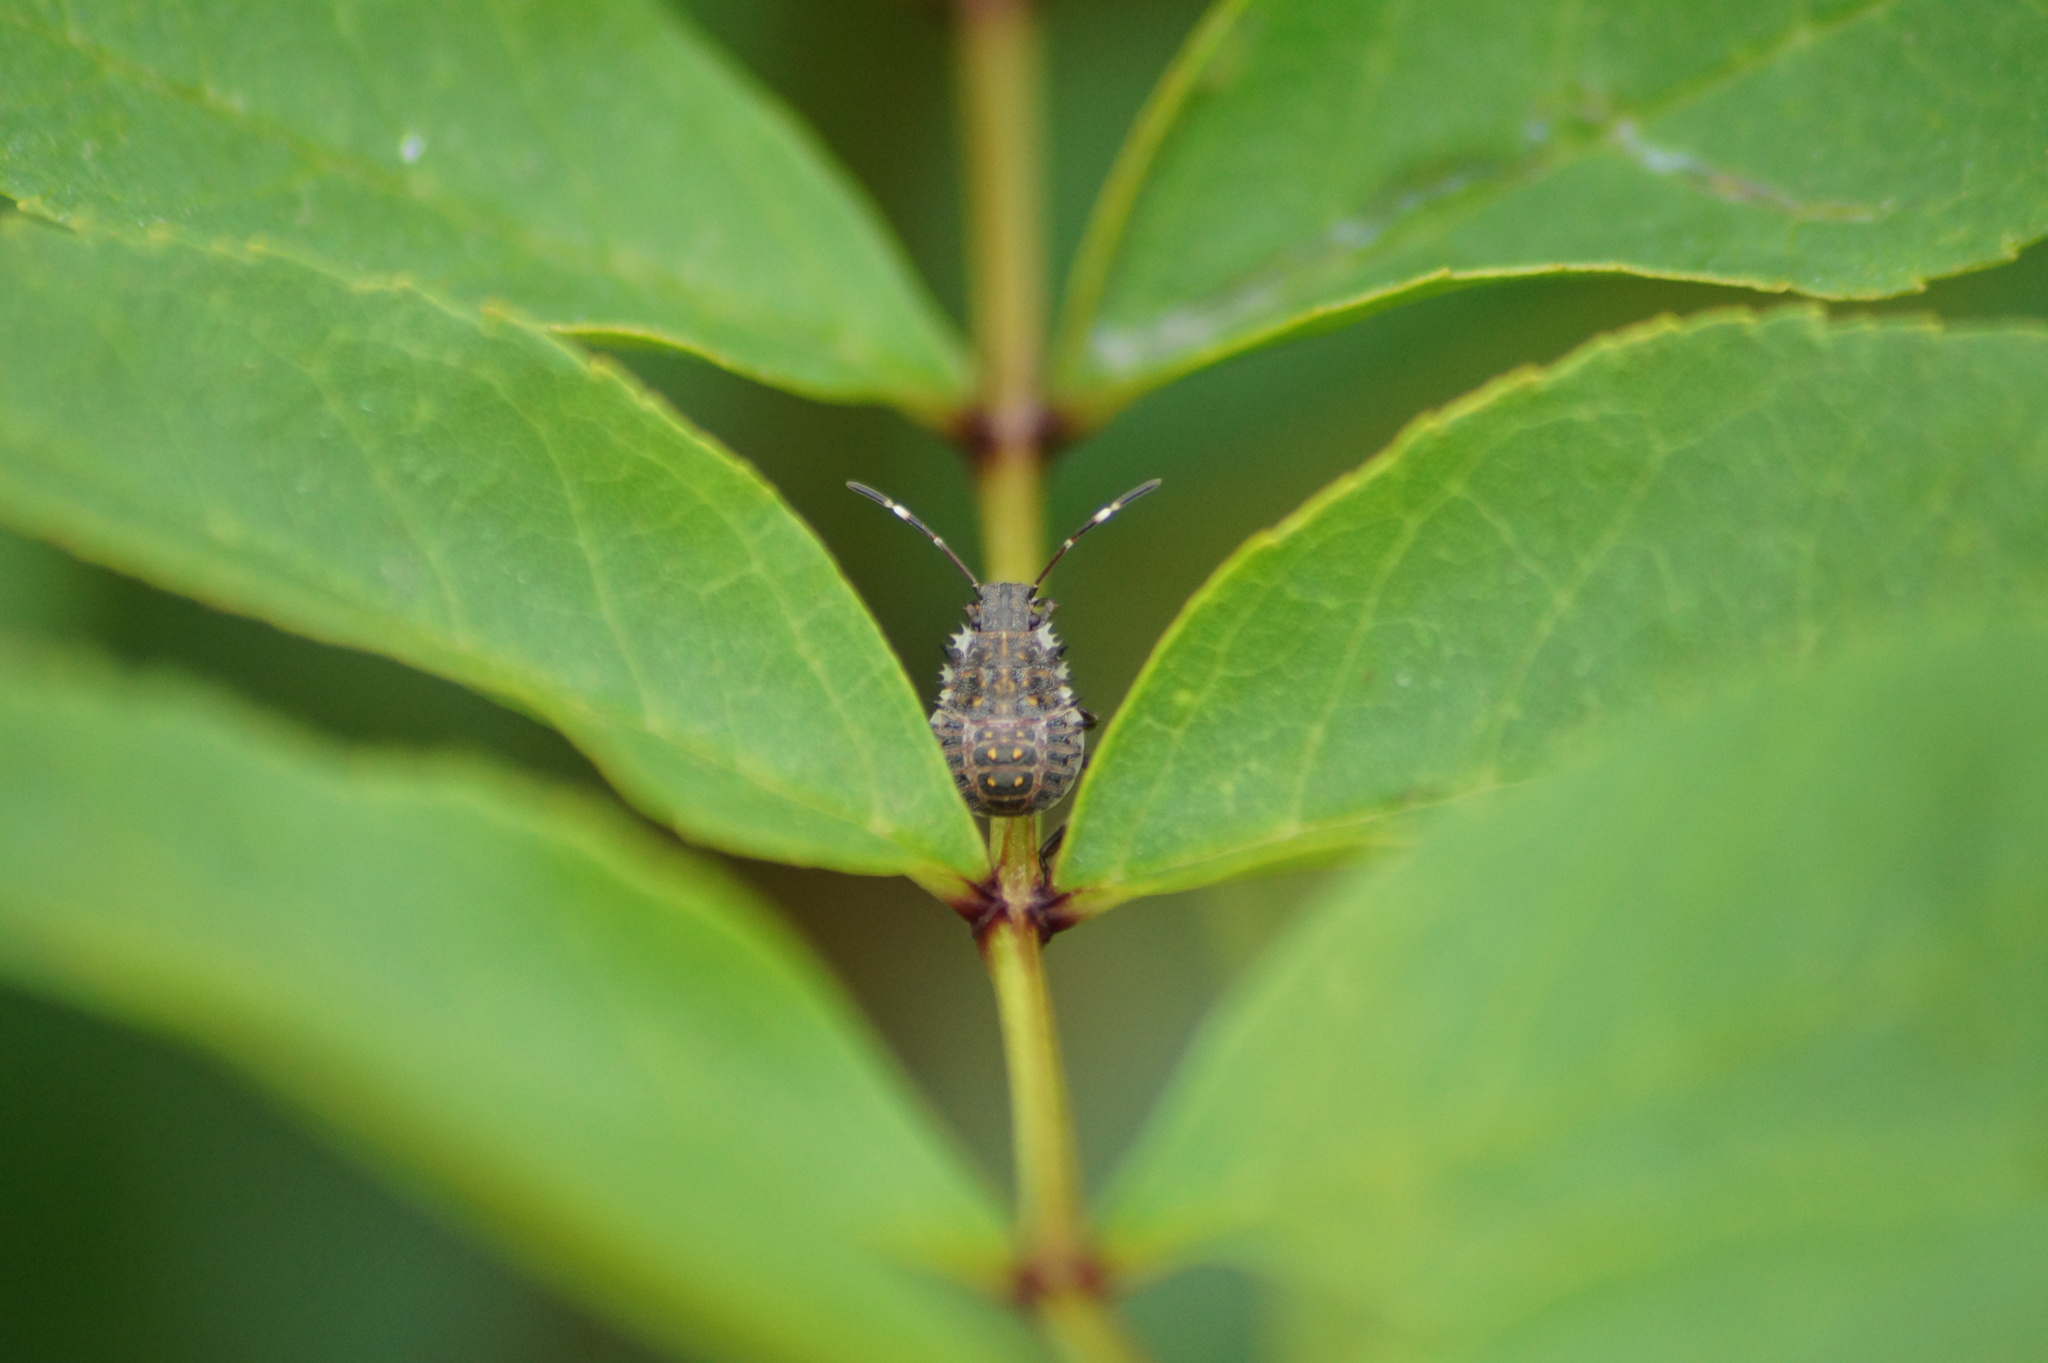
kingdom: Animalia
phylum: Arthropoda
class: Insecta
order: Hemiptera
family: Pentatomidae
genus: Halyomorpha
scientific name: Halyomorpha halys
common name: Brown marmorated stink bug
